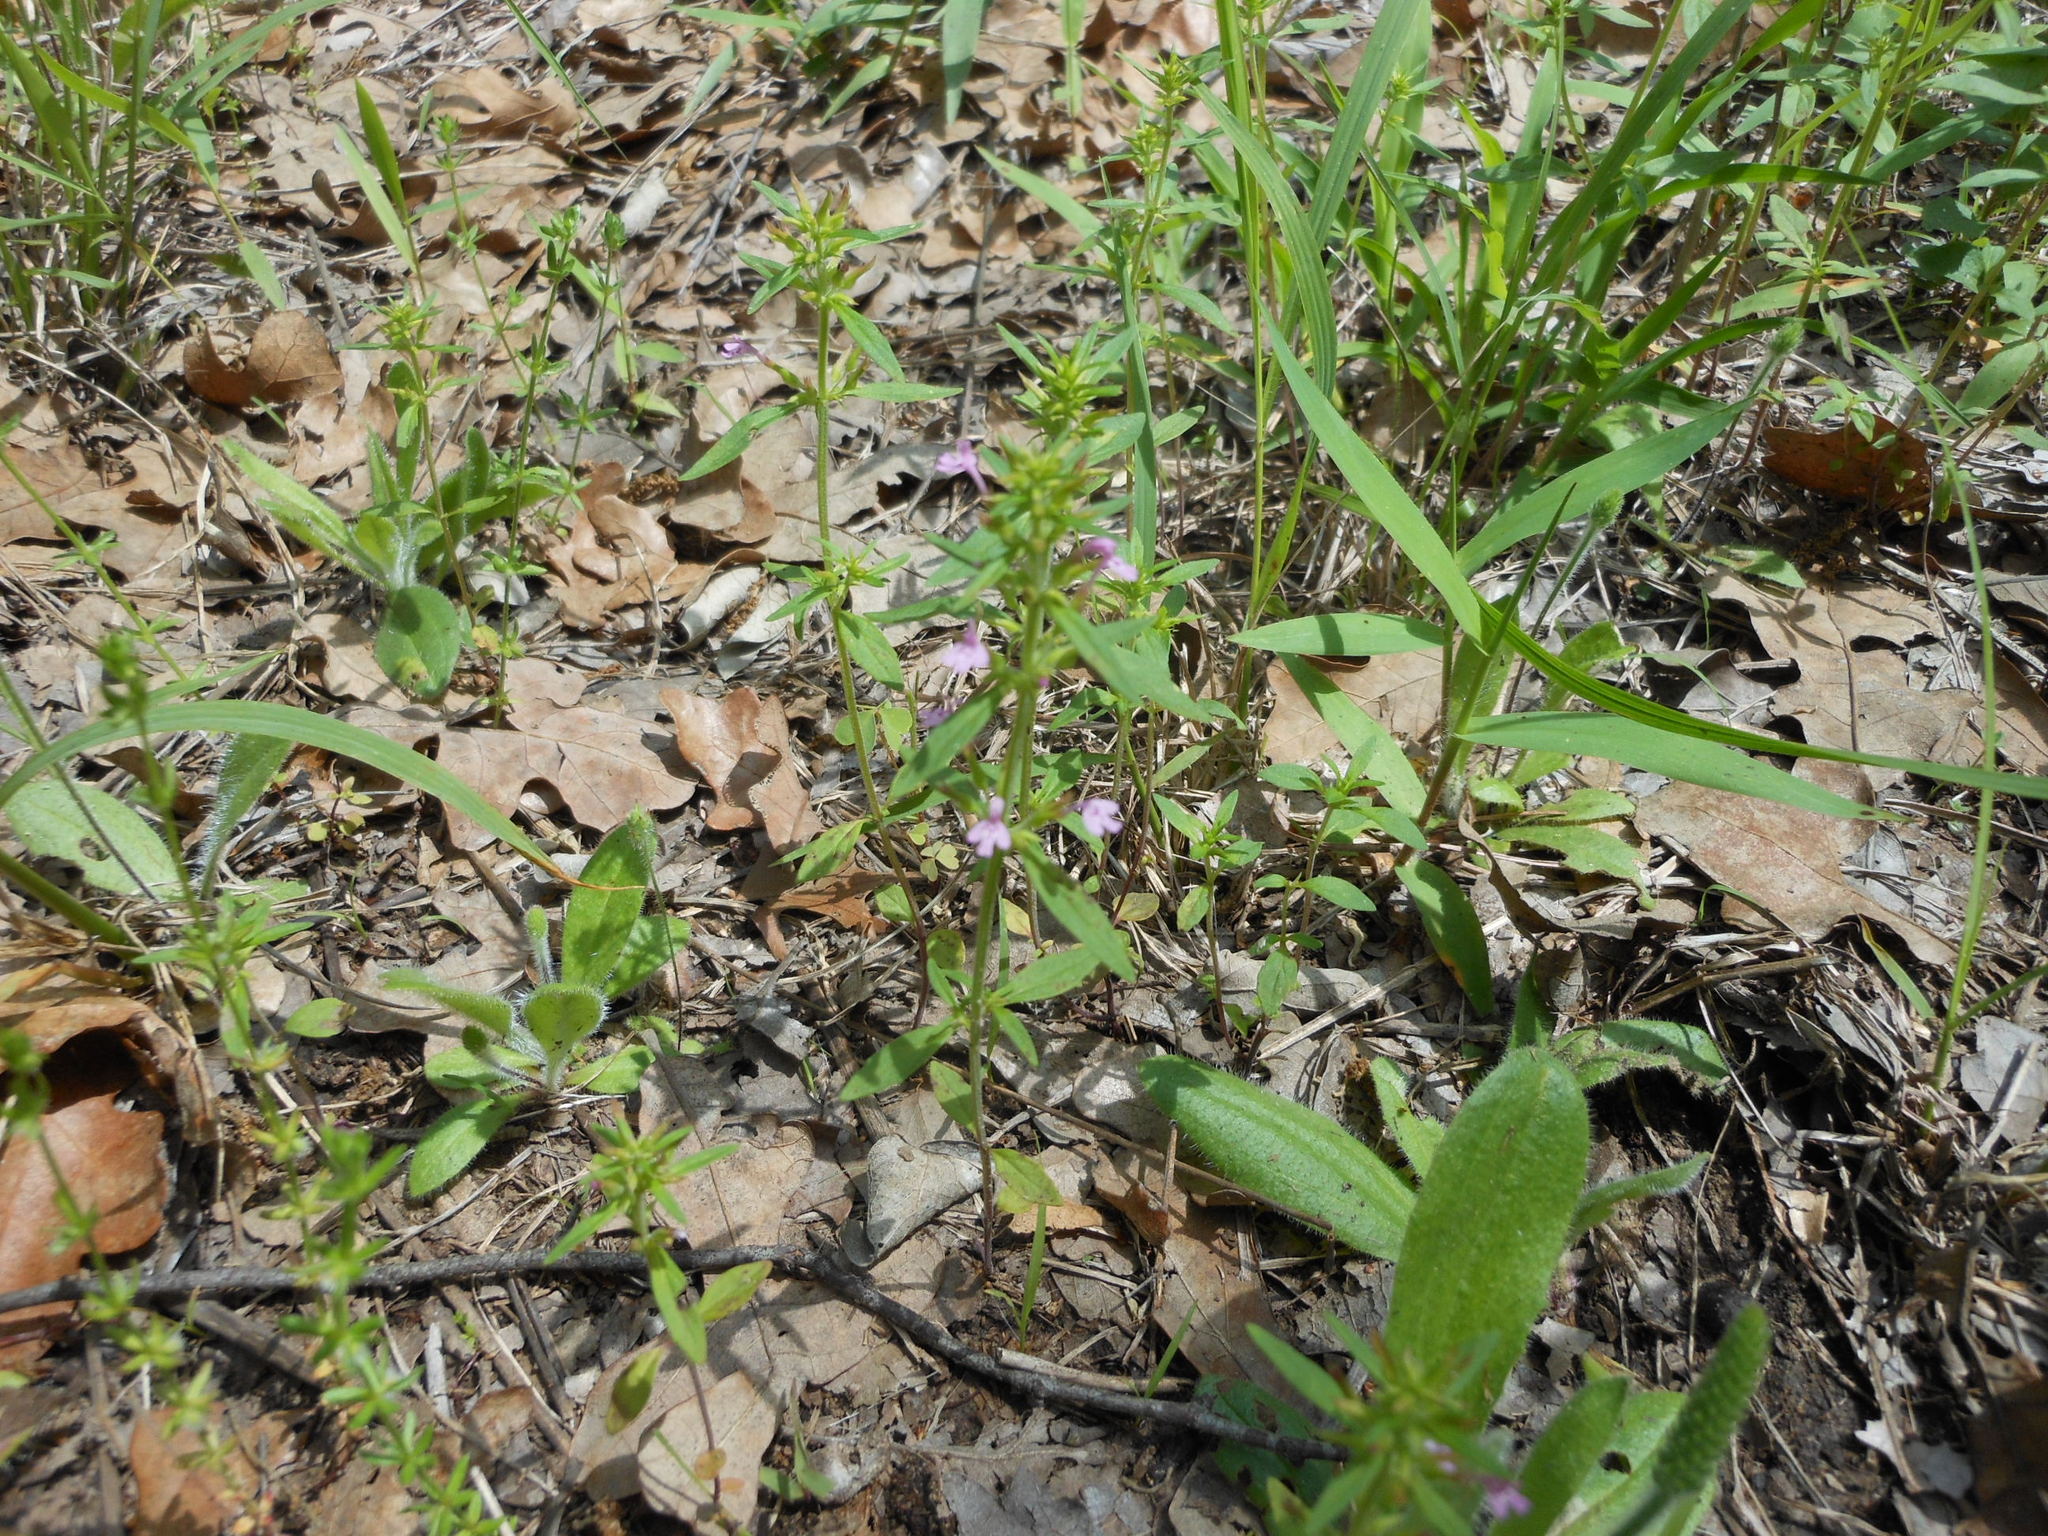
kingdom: Plantae
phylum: Tracheophyta
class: Magnoliopsida
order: Lamiales
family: Lamiaceae
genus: Hedeoma
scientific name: Hedeoma acinoides
